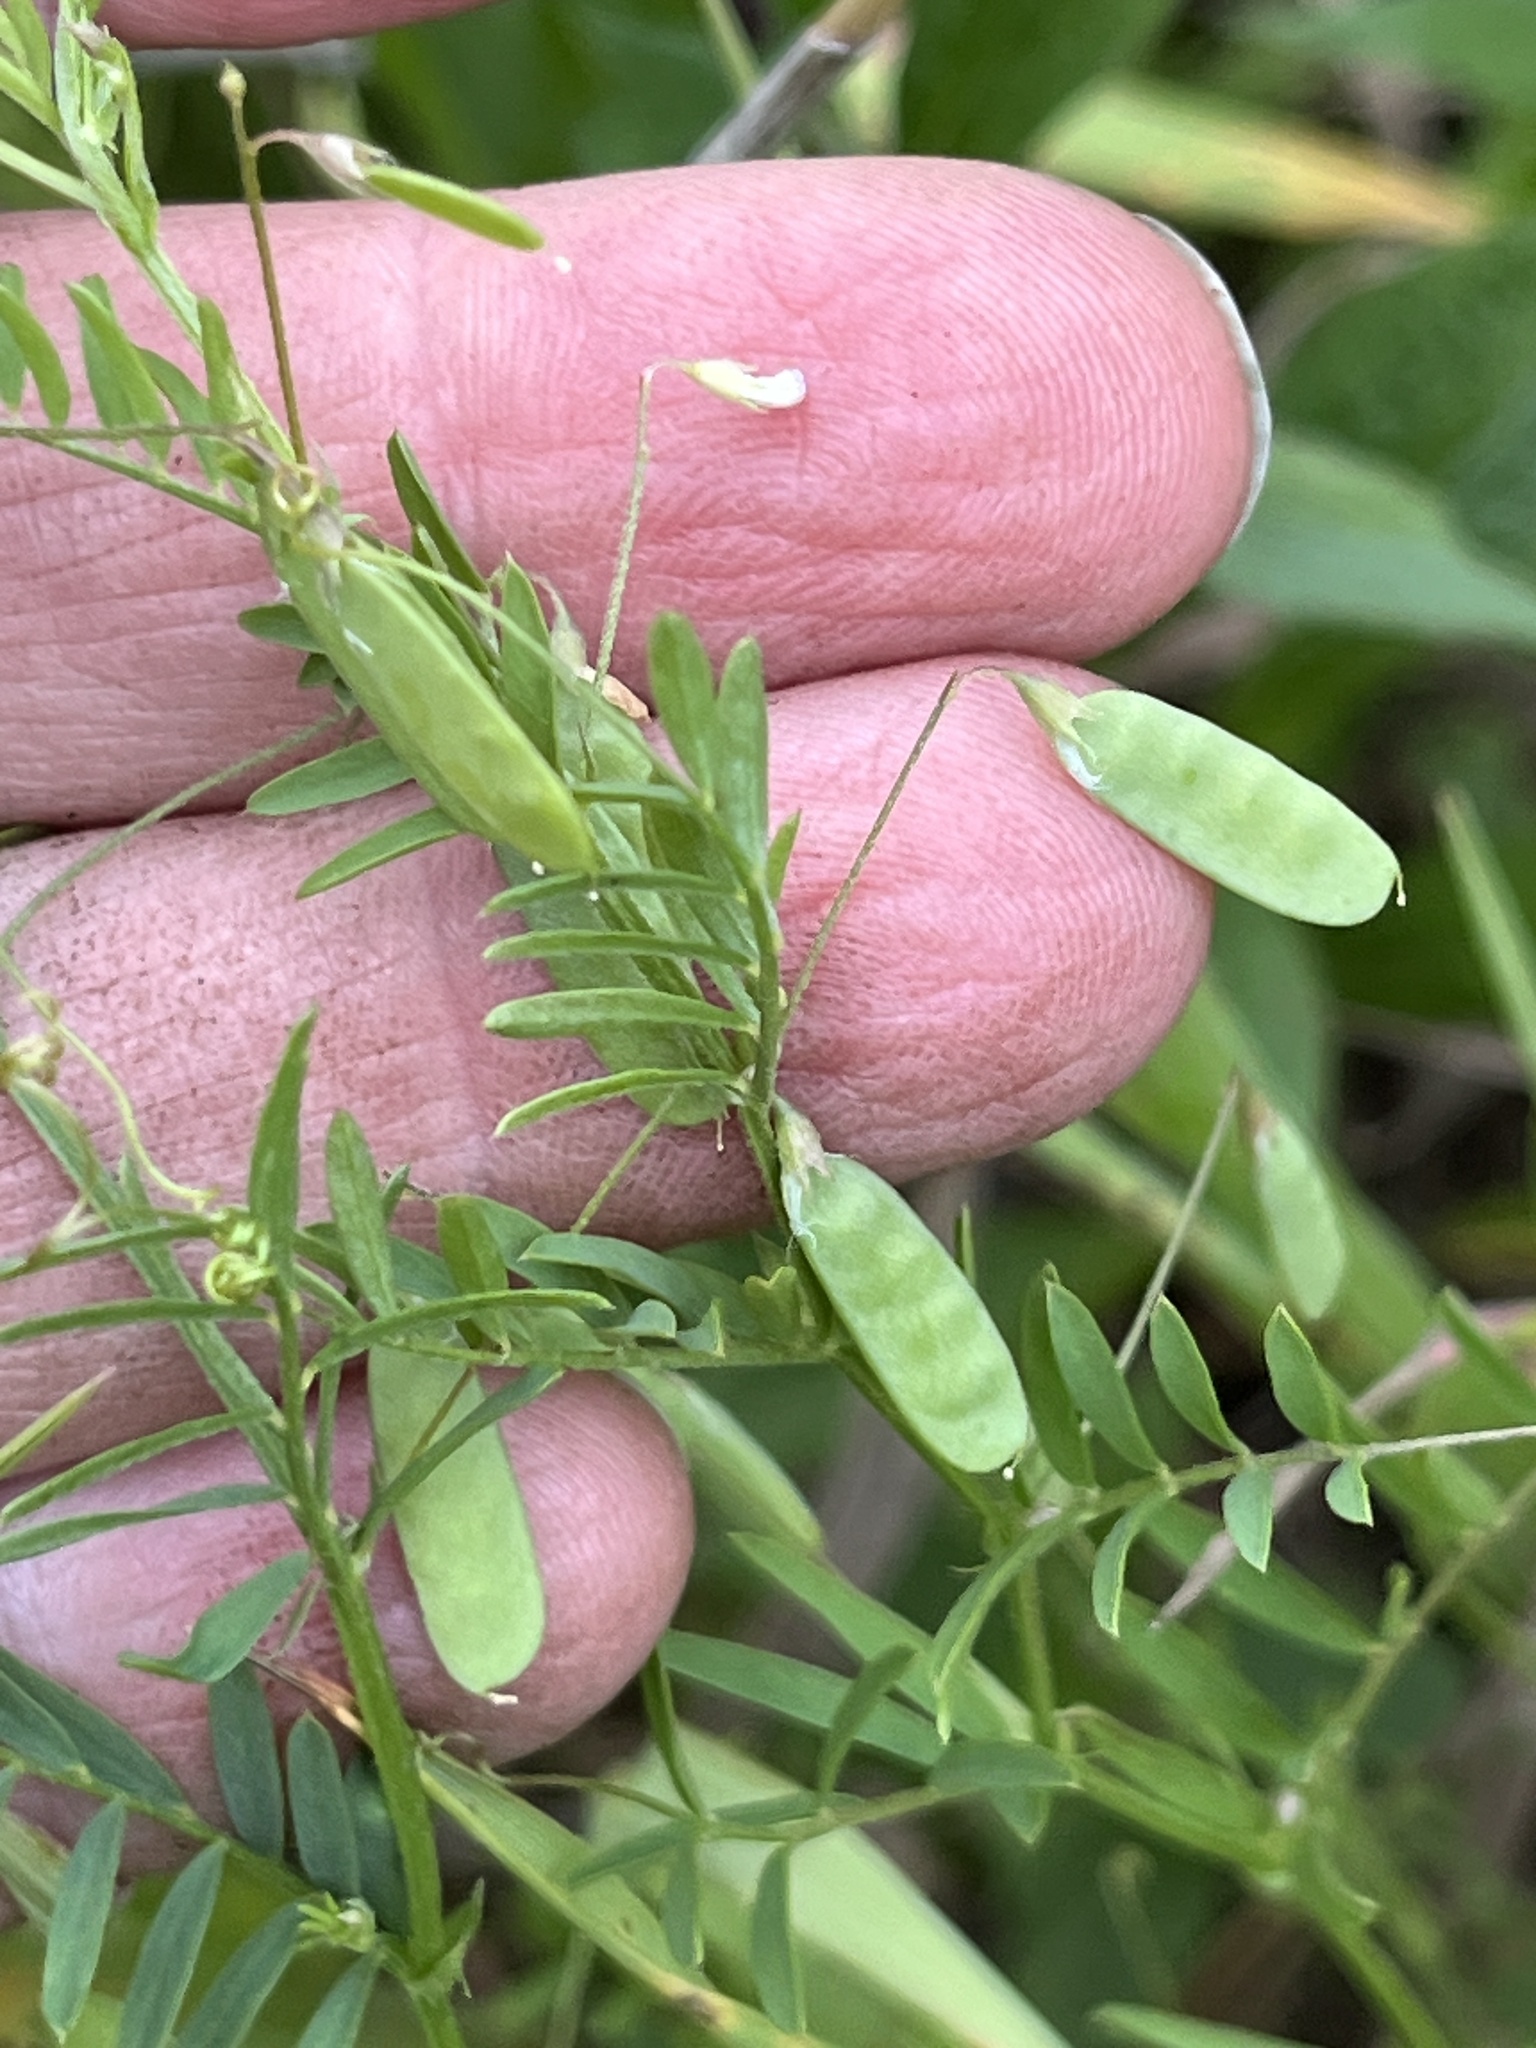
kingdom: Plantae
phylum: Tracheophyta
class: Magnoliopsida
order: Fabales
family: Fabaceae
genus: Vicia
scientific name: Vicia tetrasperma
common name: Smooth tare
